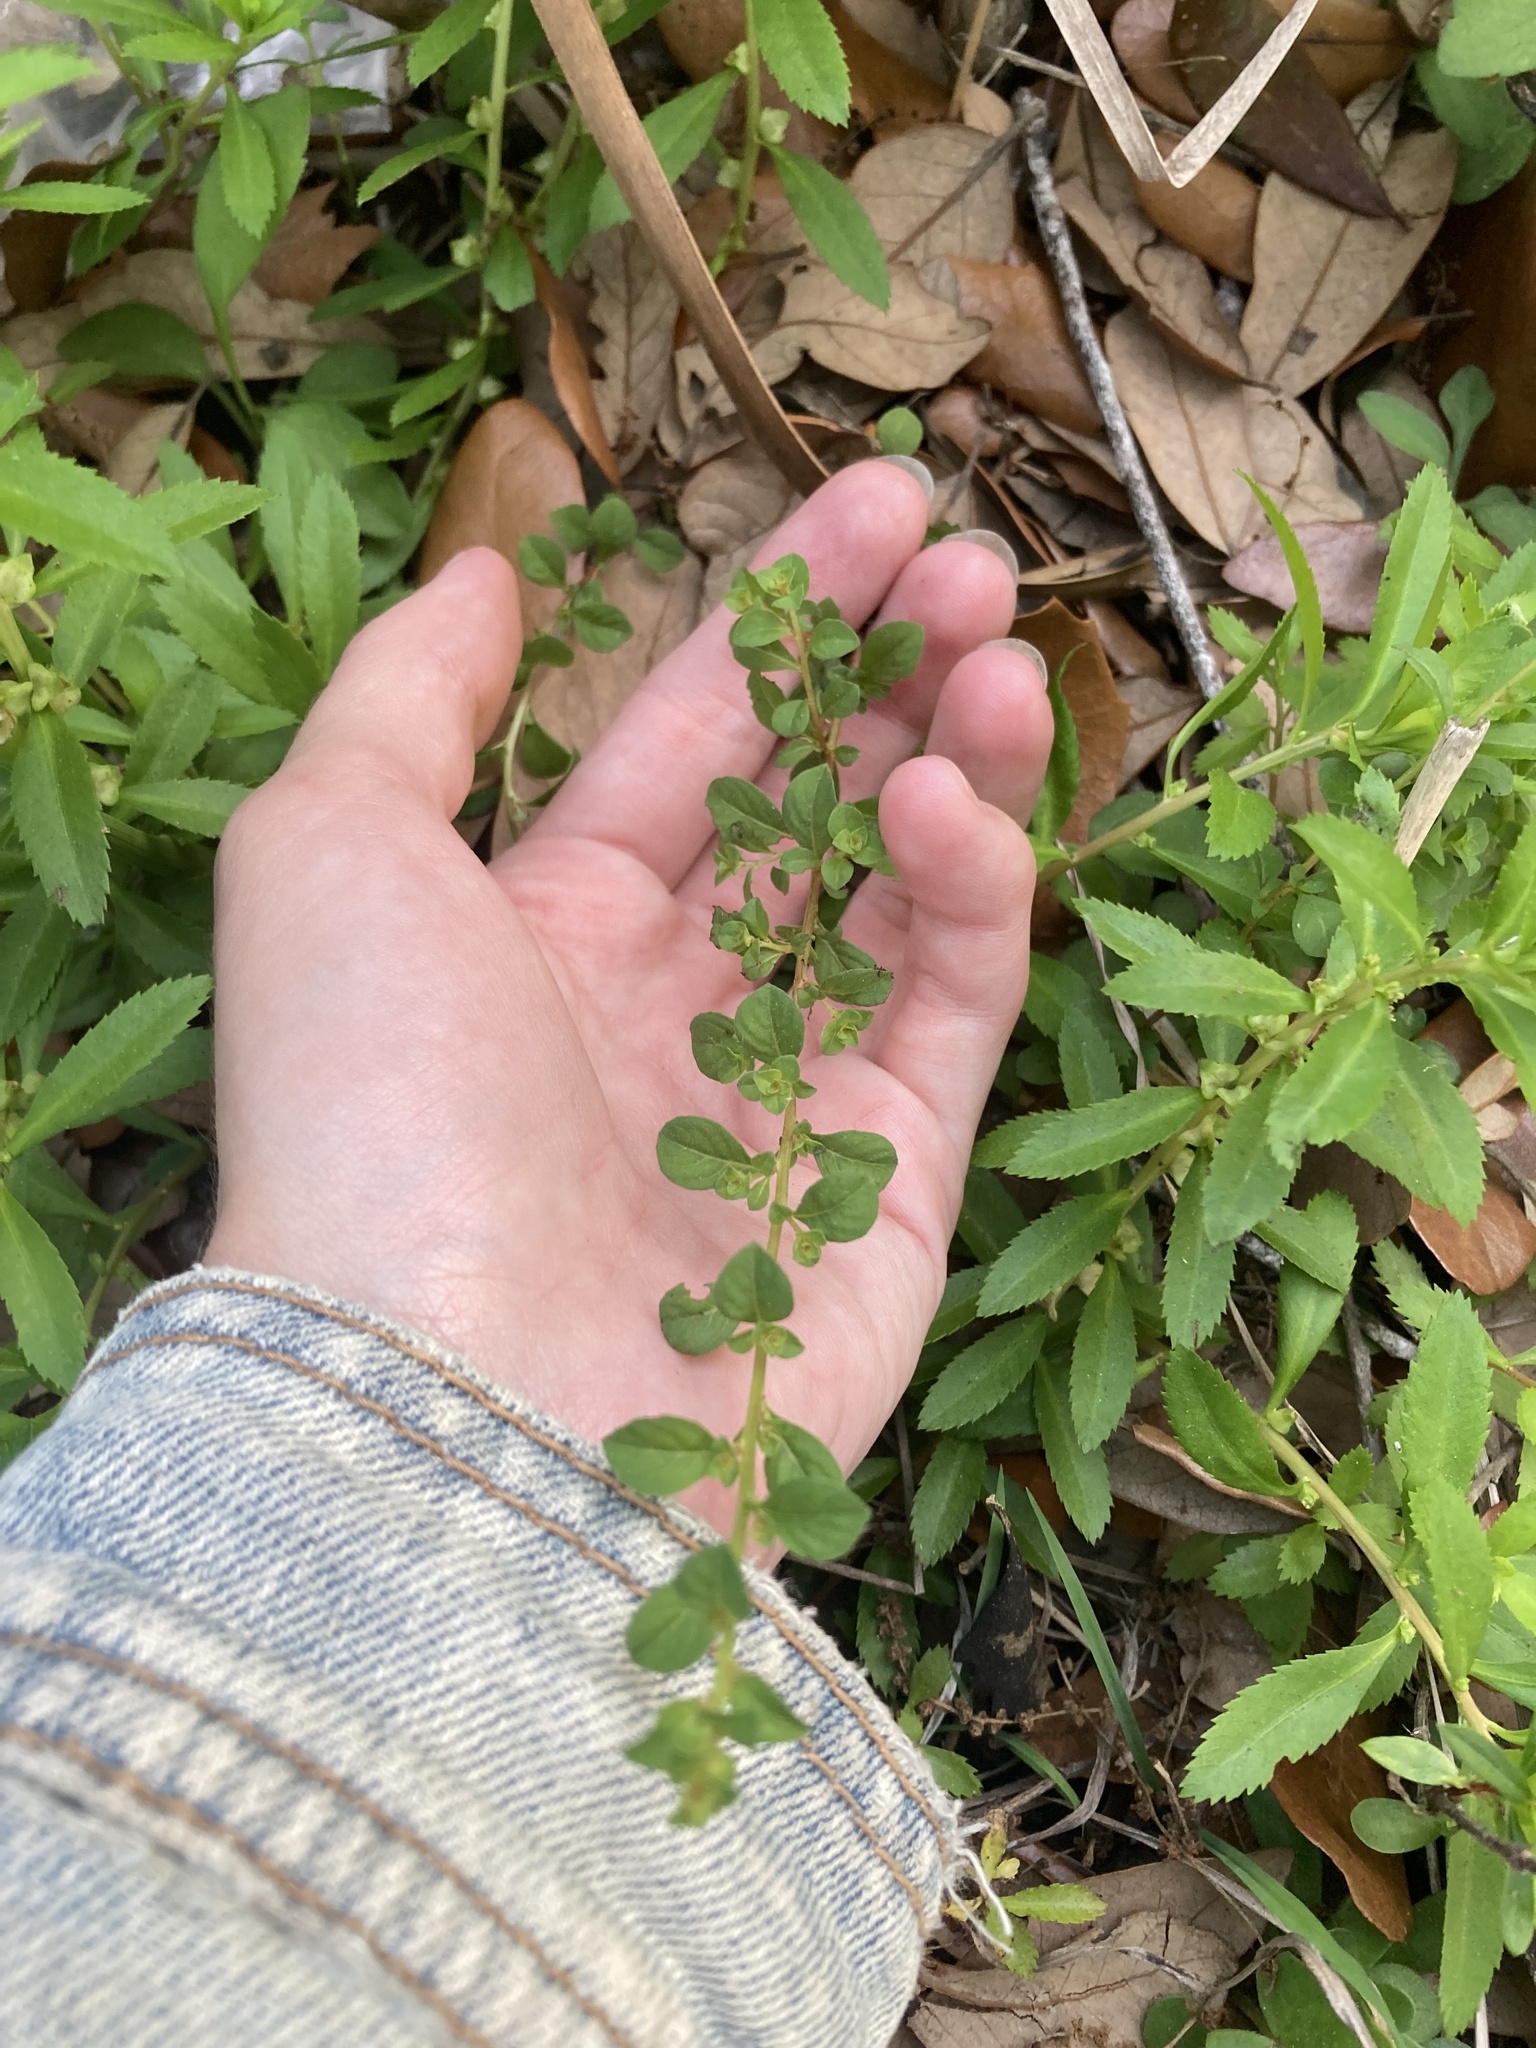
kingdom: Plantae
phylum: Tracheophyta
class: Magnoliopsida
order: Myrtales
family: Onagraceae
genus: Ludwigia
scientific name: Ludwigia microcarpa
